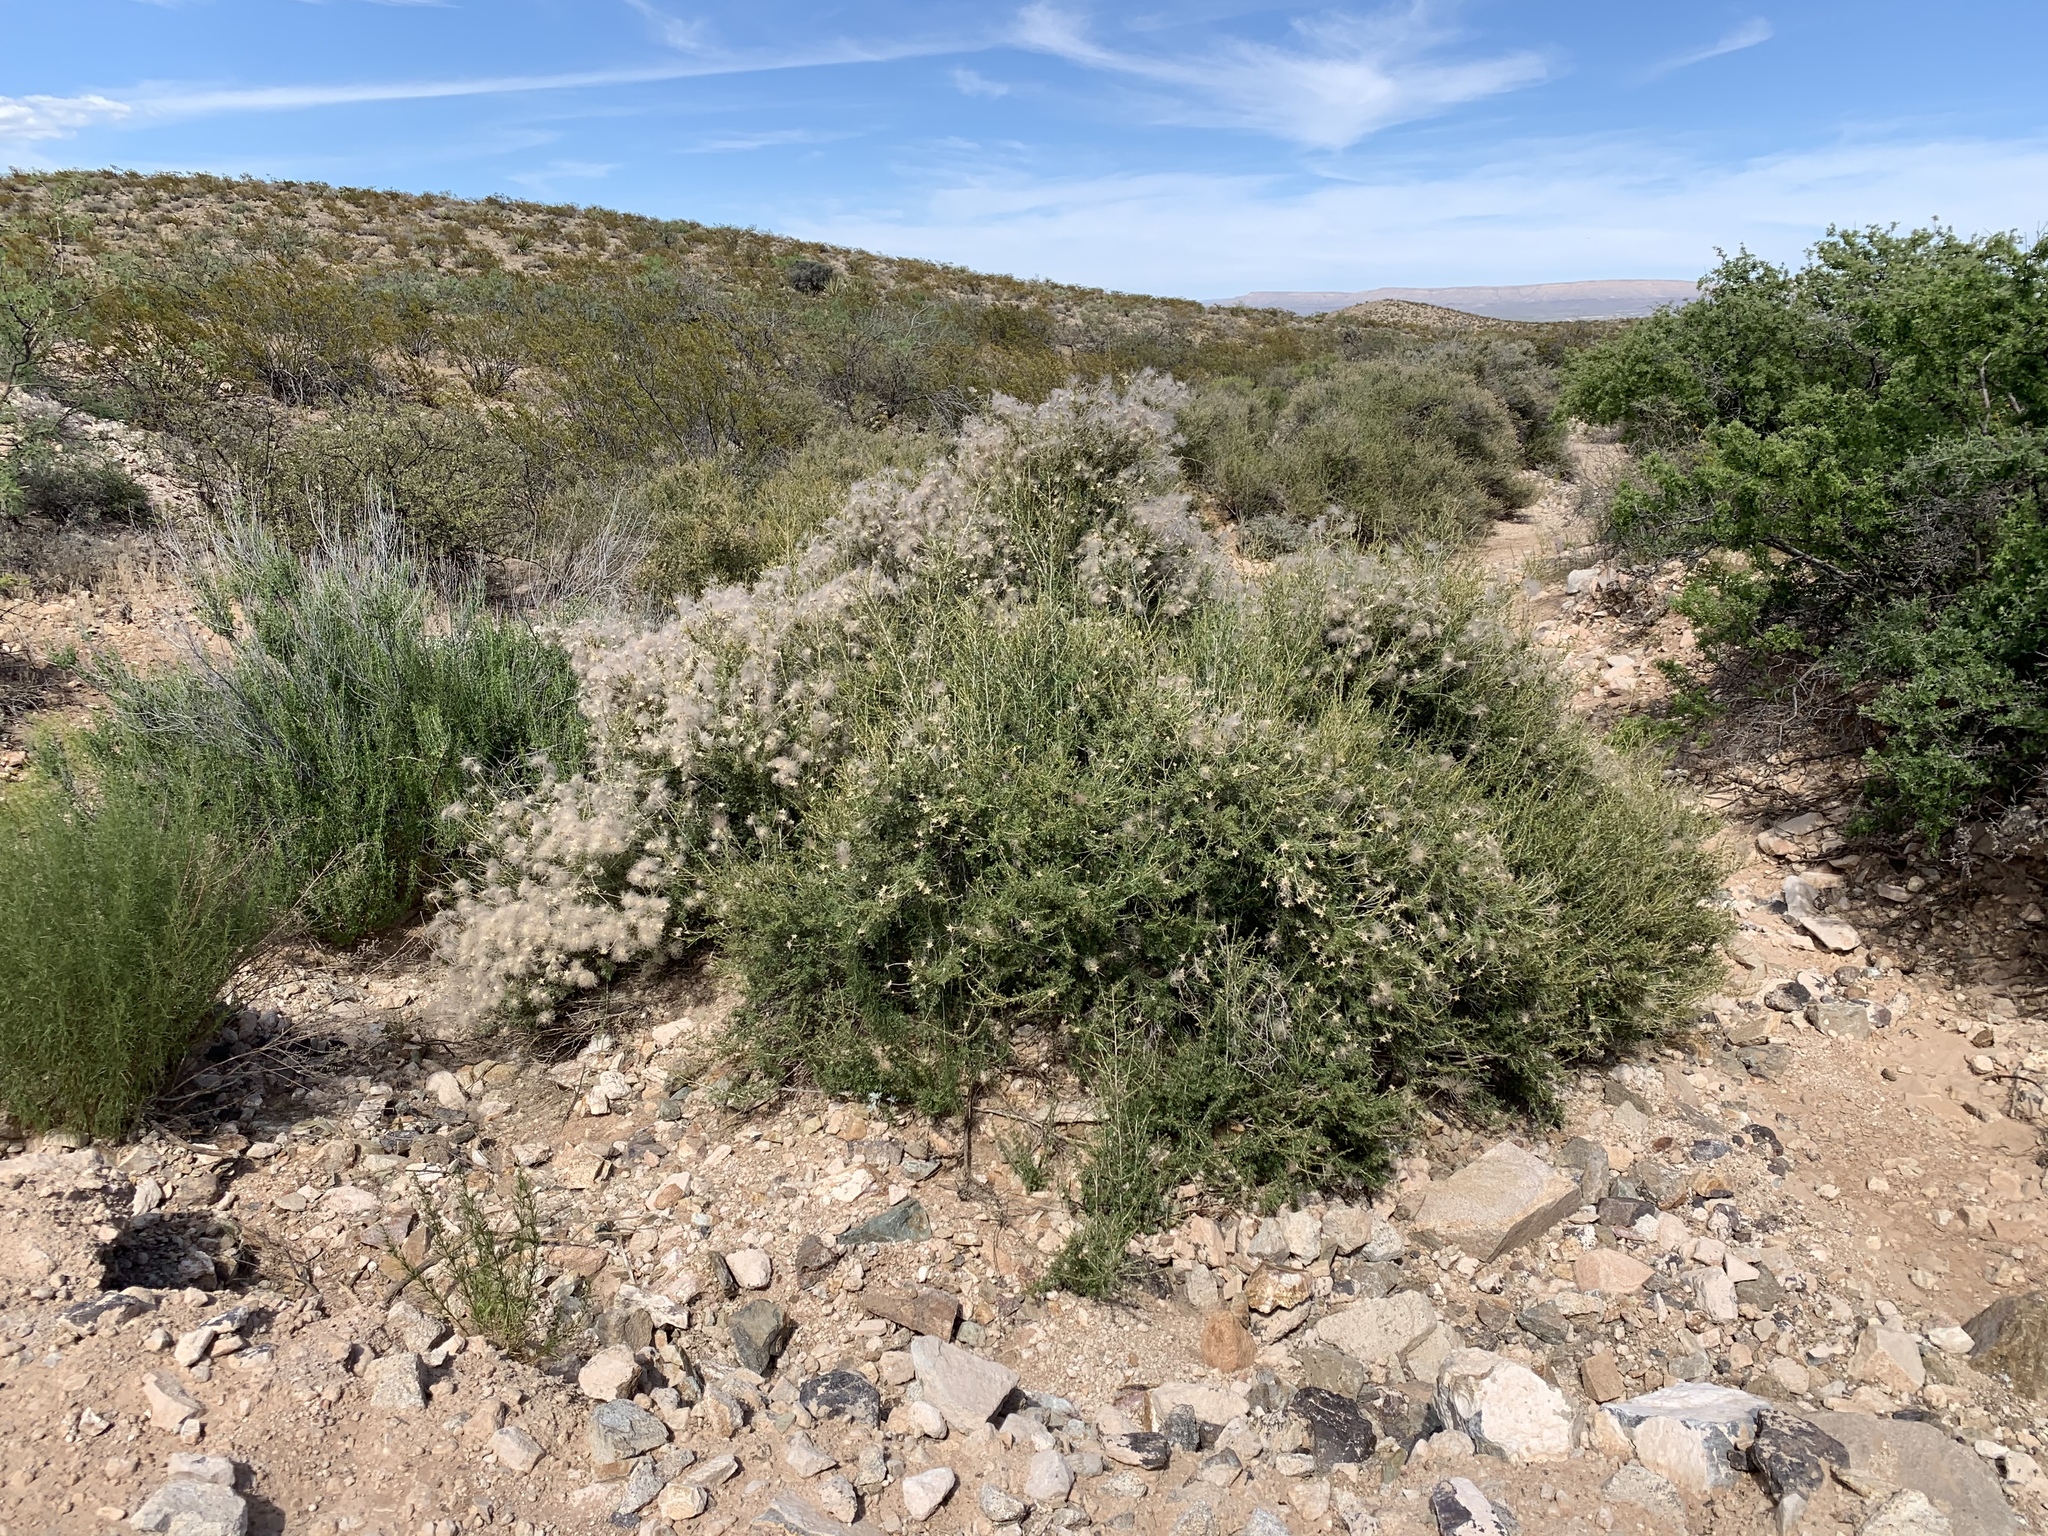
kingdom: Plantae
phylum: Tracheophyta
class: Magnoliopsida
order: Rosales
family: Rosaceae
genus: Fallugia
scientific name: Fallugia paradoxa
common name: Apache-plume
